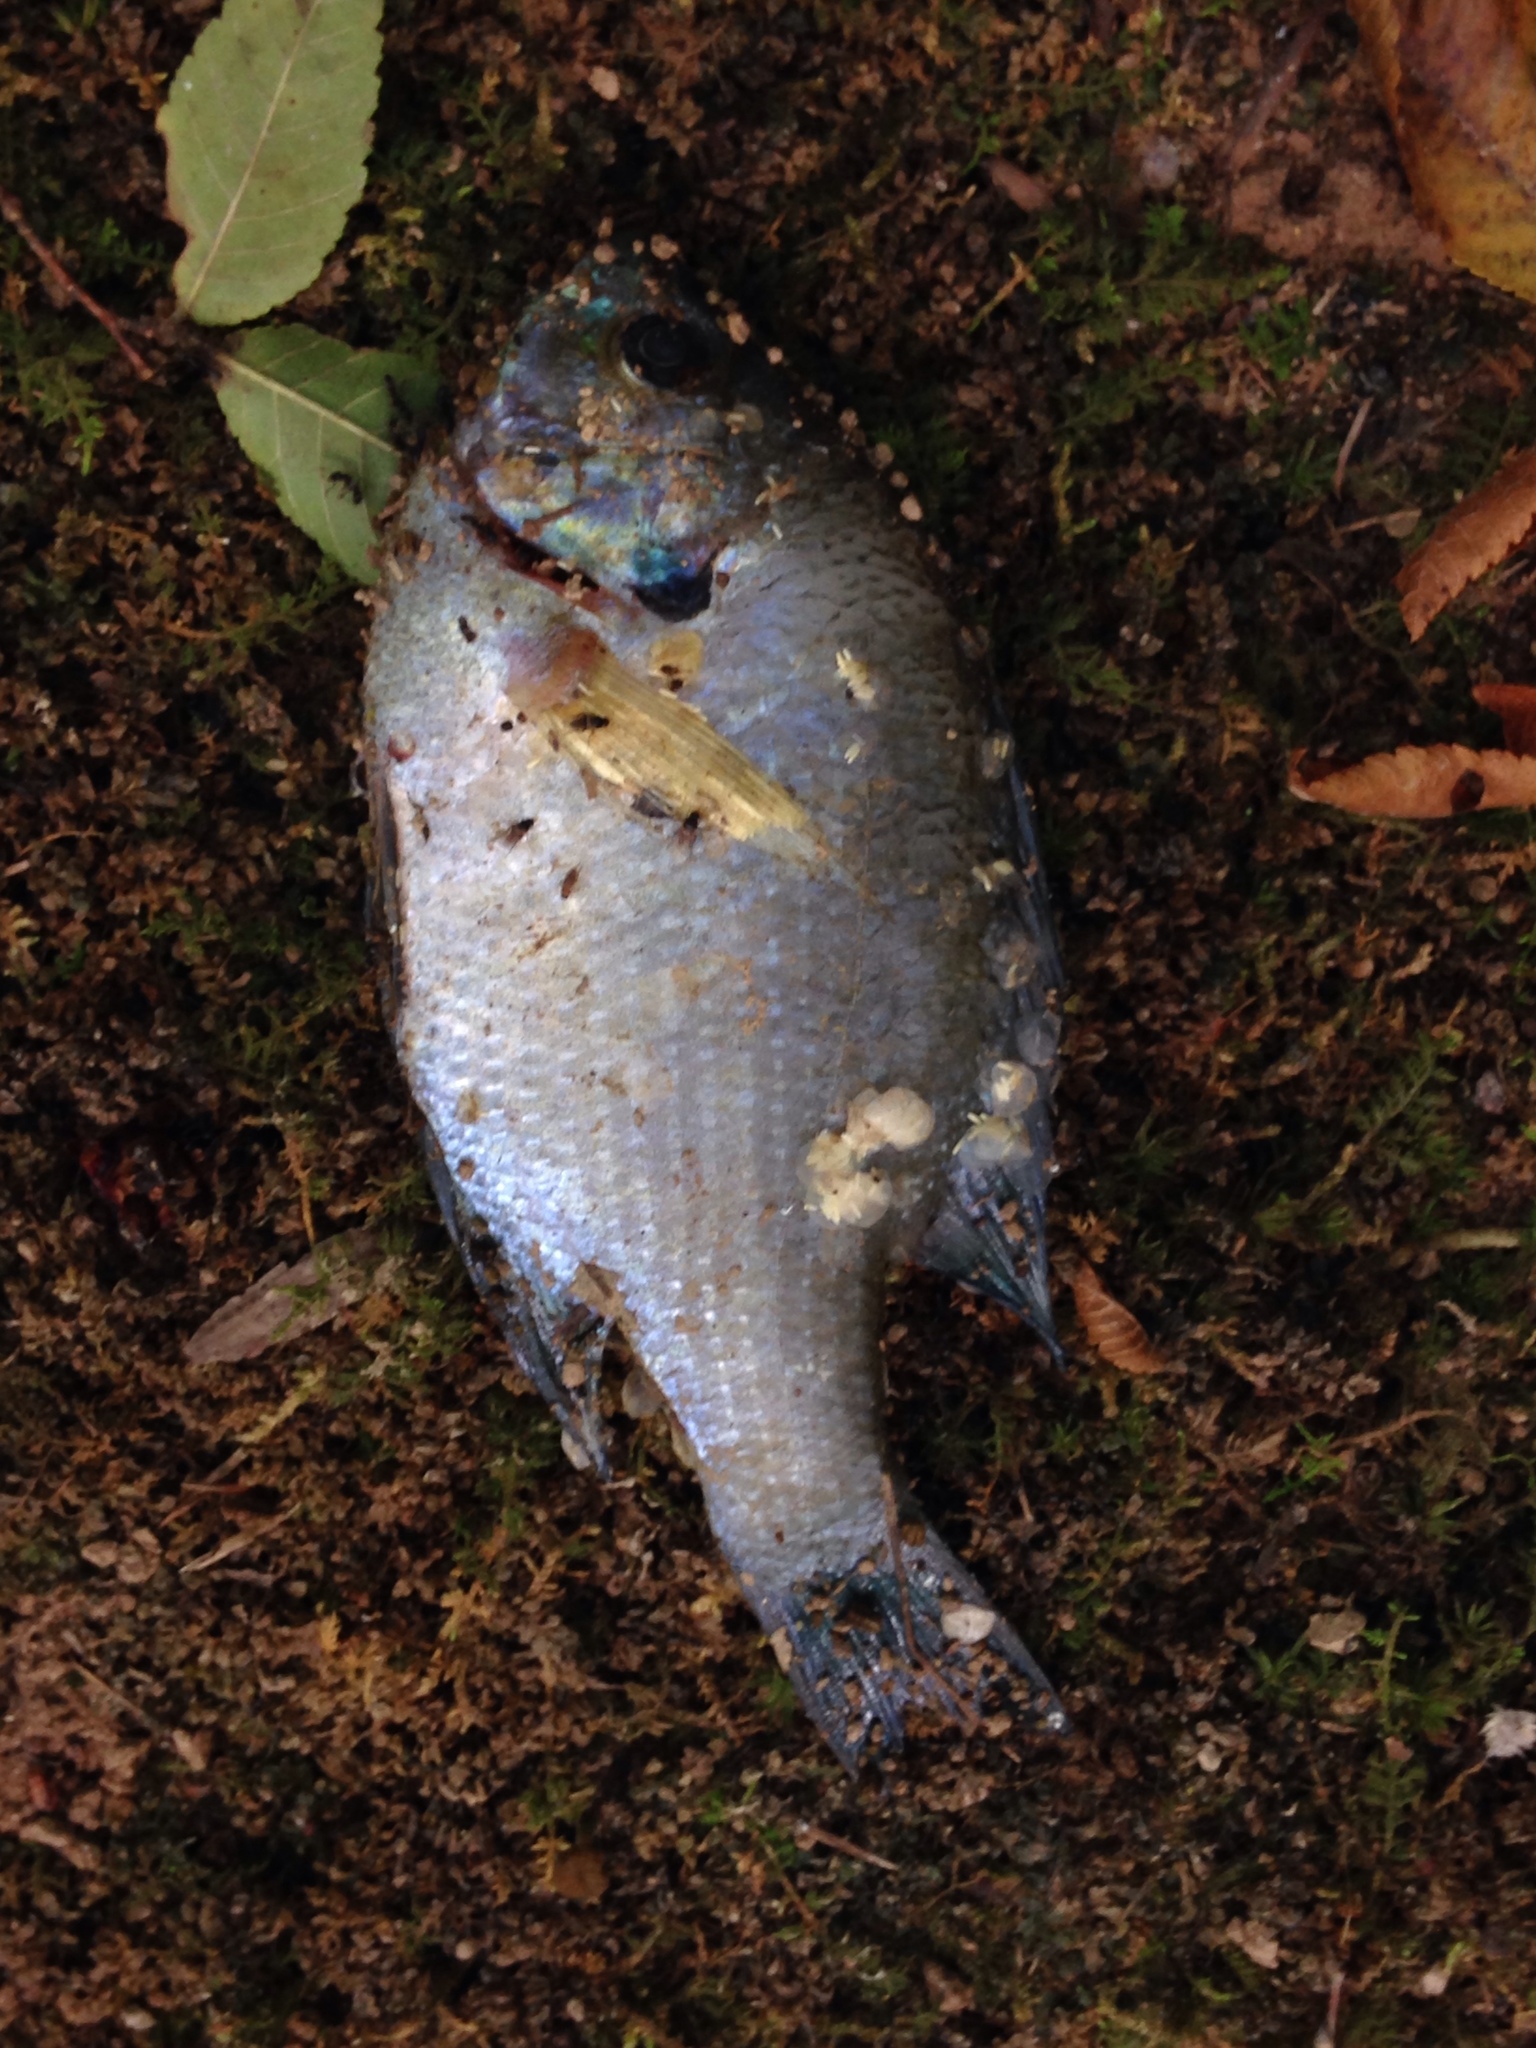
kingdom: Animalia
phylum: Chordata
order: Perciformes
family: Centrarchidae
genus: Lepomis
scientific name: Lepomis macrochirus
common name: Bluegill
